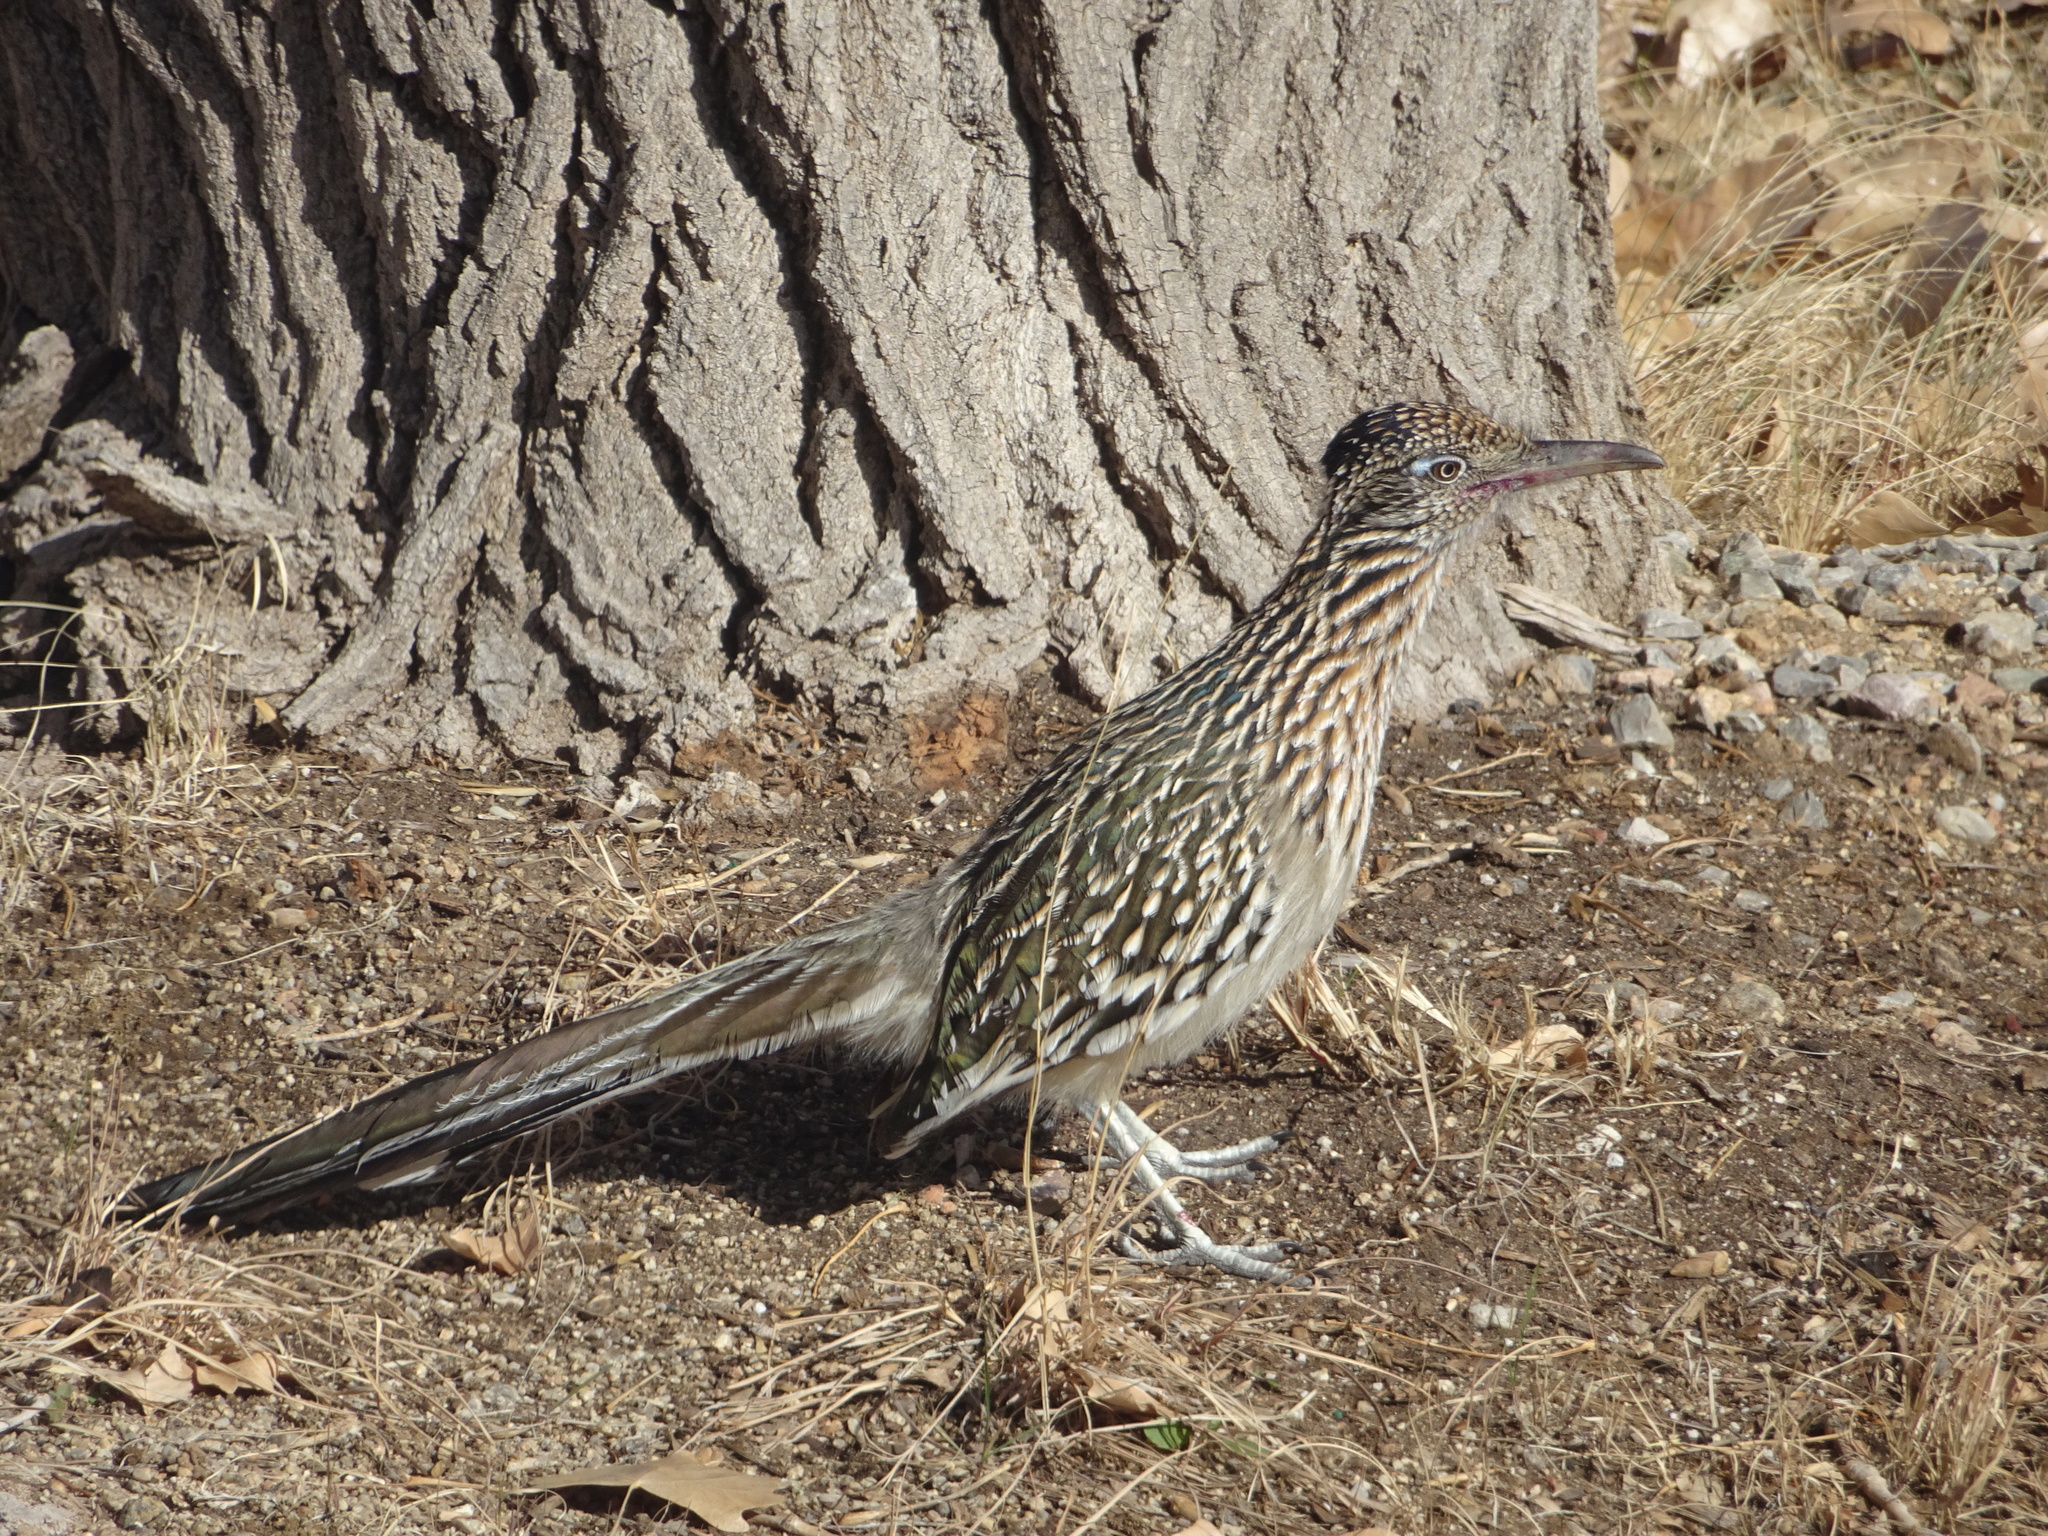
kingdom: Animalia
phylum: Chordata
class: Aves
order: Cuculiformes
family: Cuculidae
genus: Geococcyx
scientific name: Geococcyx californianus
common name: Greater roadrunner
